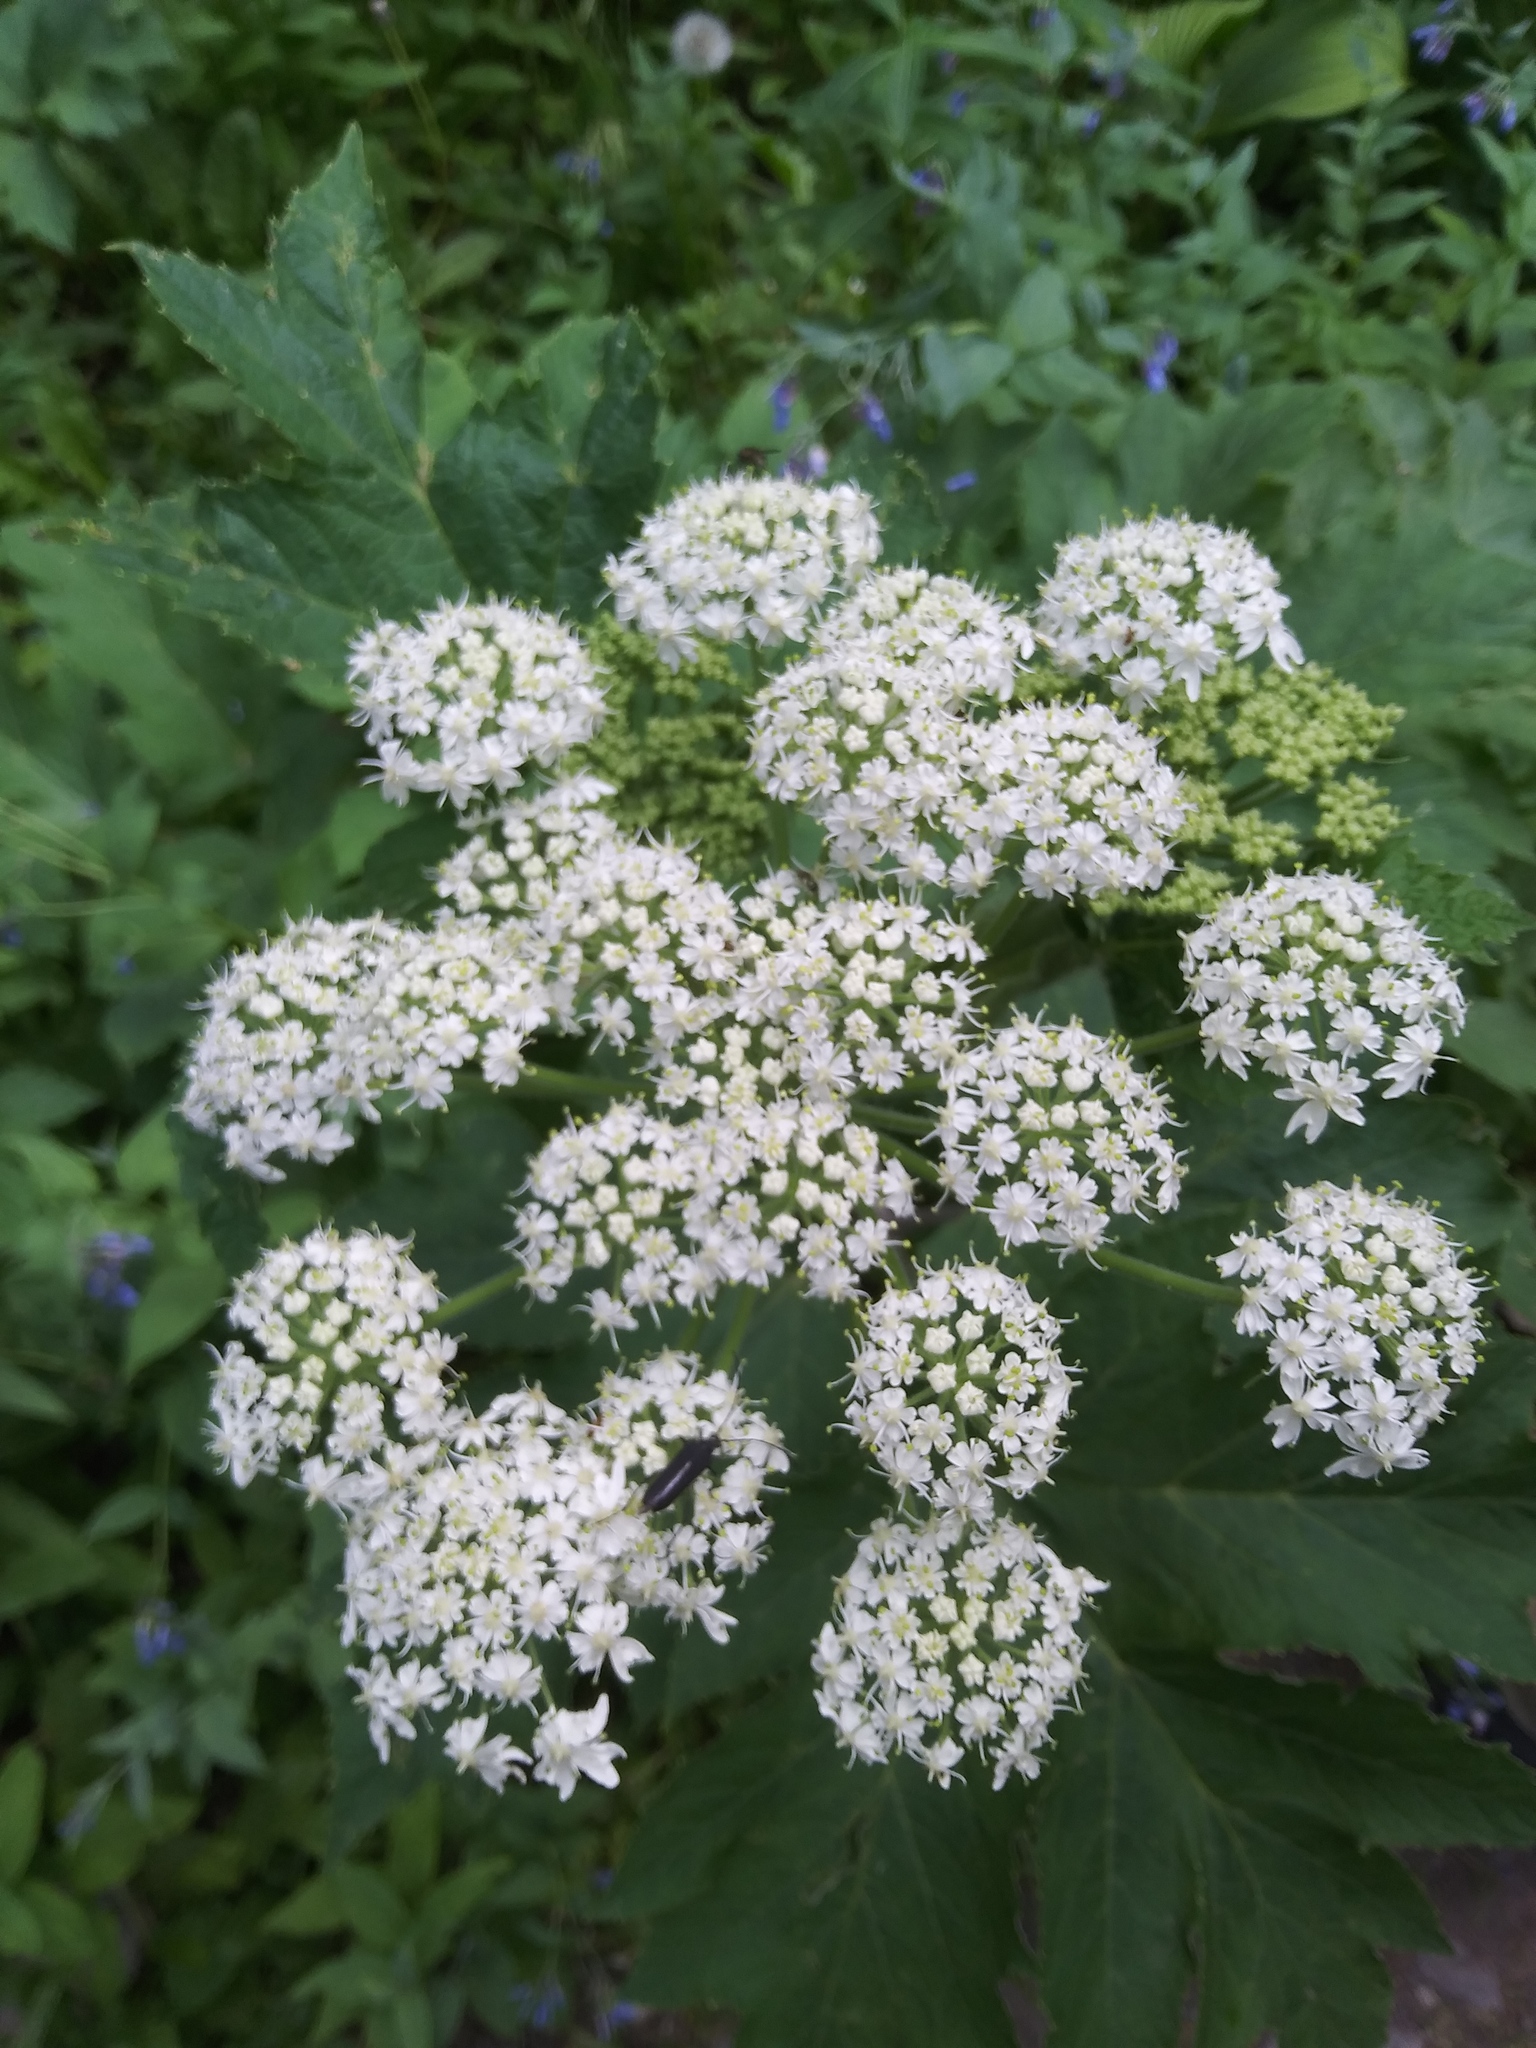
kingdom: Plantae
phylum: Tracheophyta
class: Magnoliopsida
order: Apiales
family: Apiaceae
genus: Heracleum
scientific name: Heracleum maximum
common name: American cow parsnip
